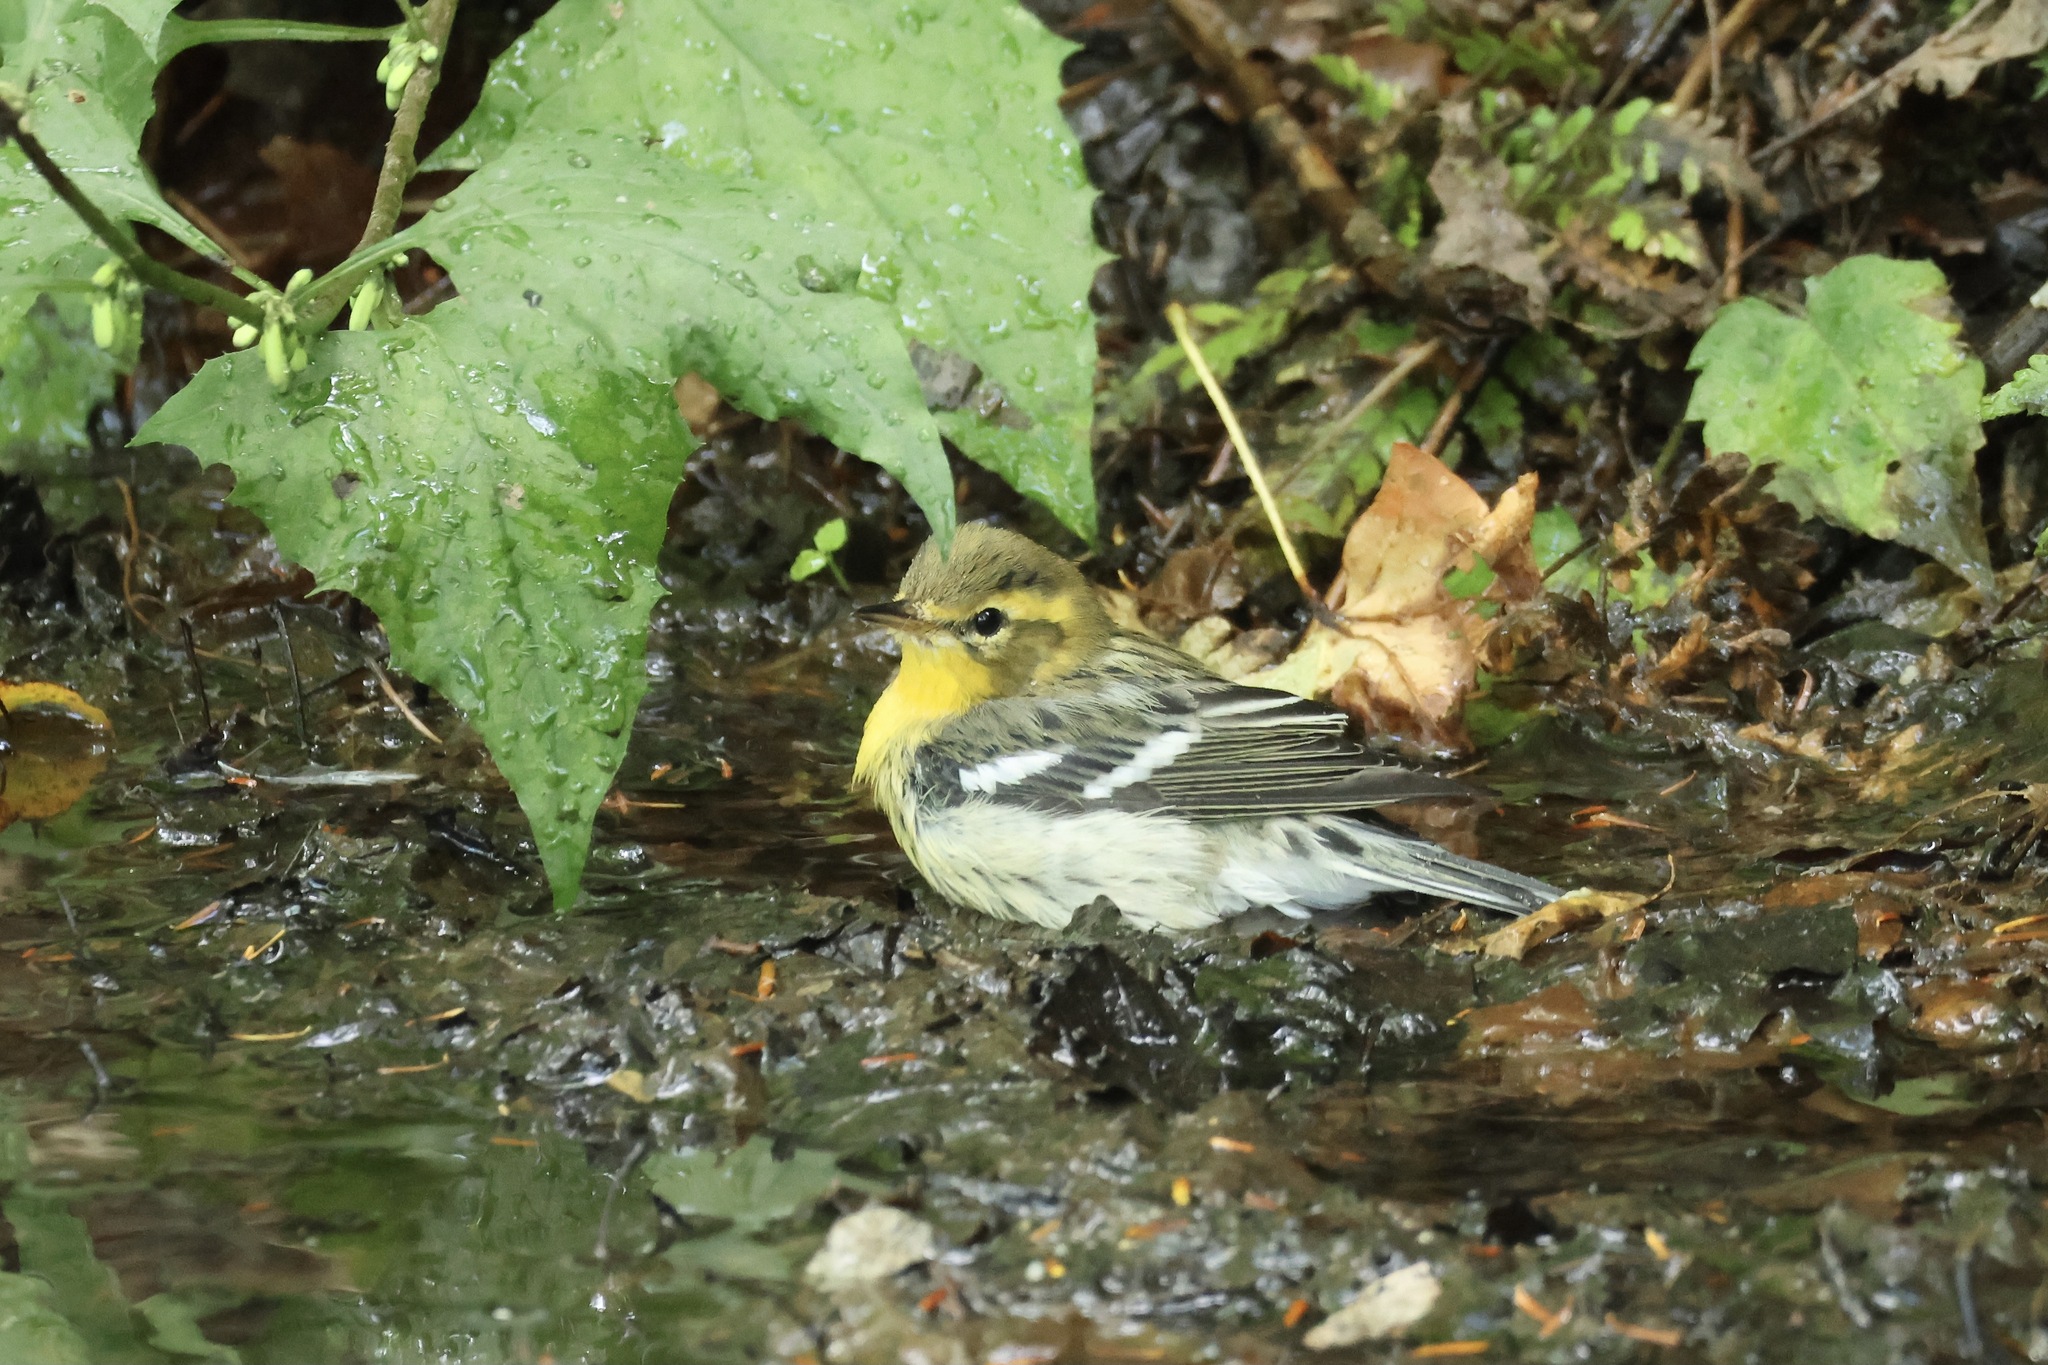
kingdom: Animalia
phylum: Chordata
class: Aves
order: Passeriformes
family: Parulidae
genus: Setophaga
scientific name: Setophaga fusca
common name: Blackburnian warbler
